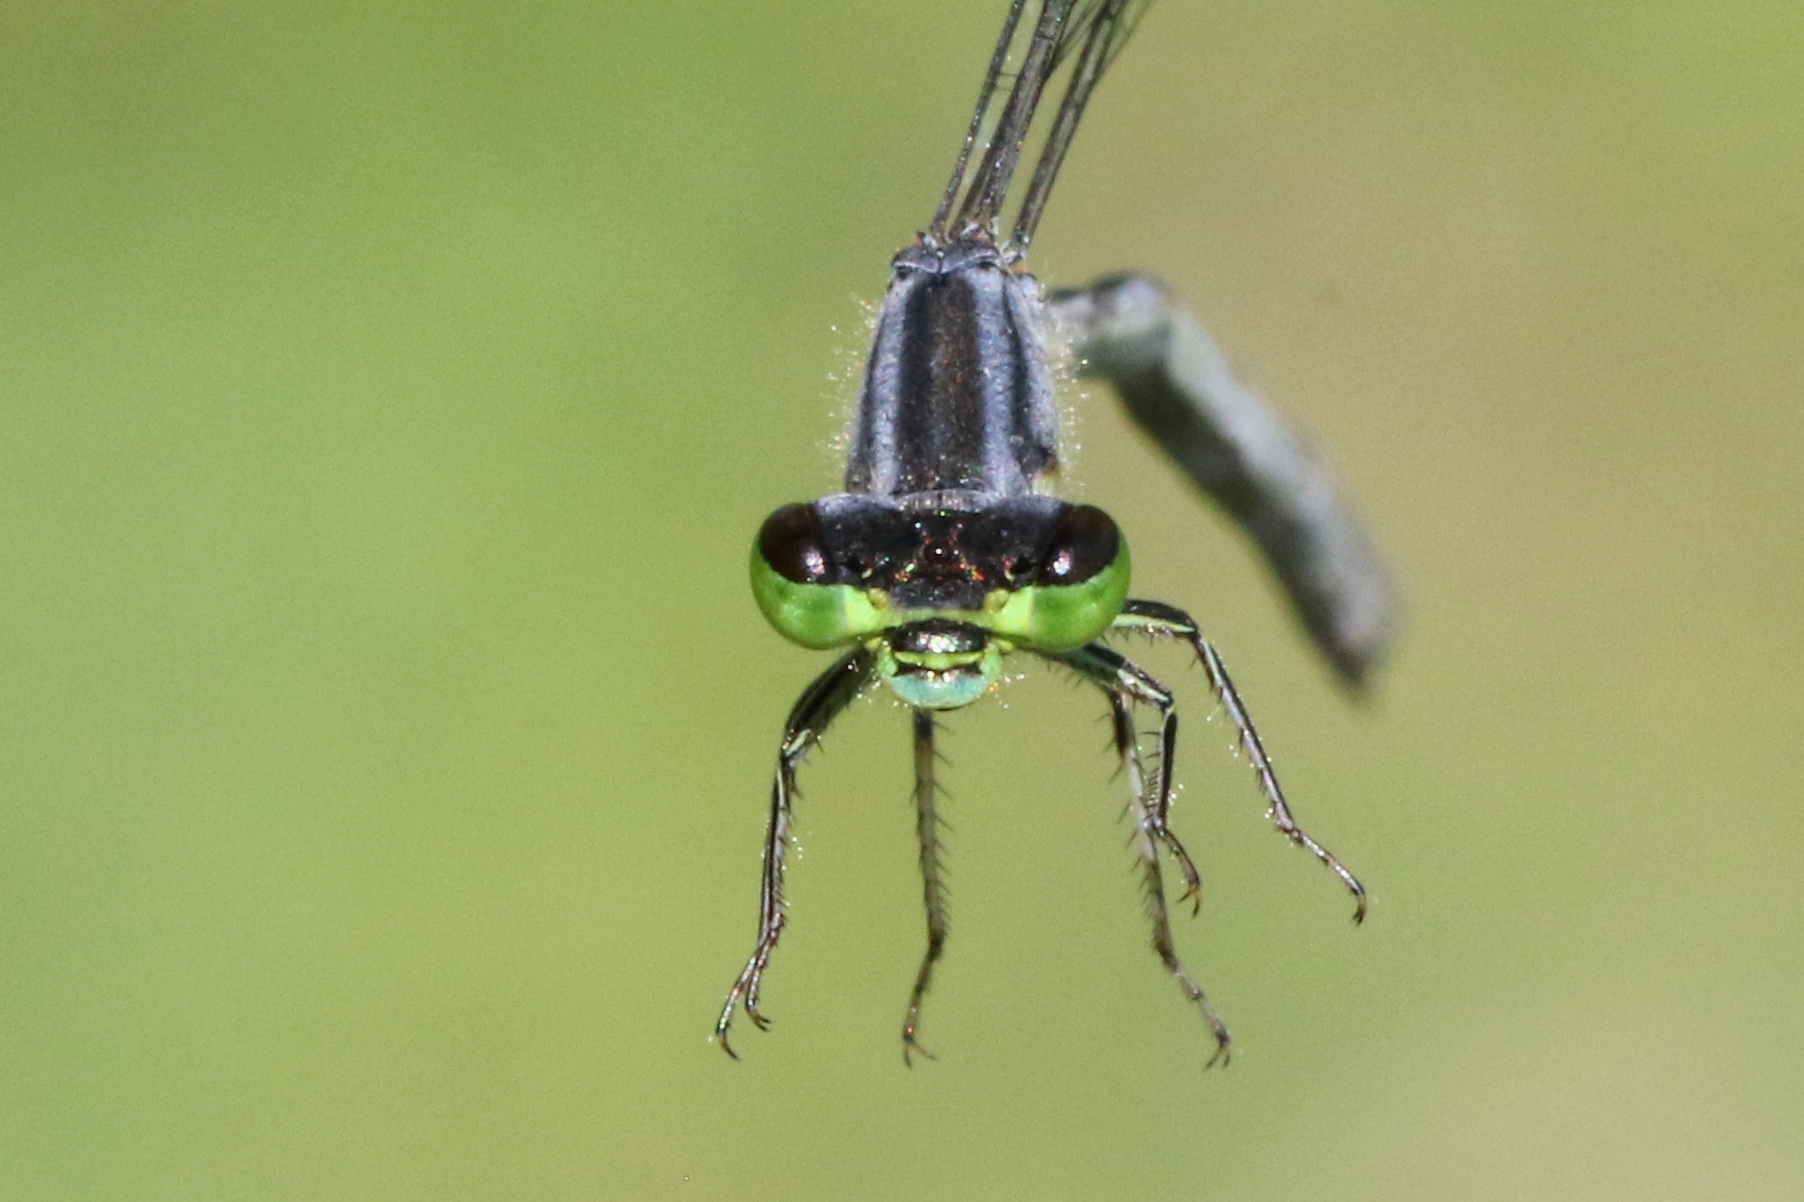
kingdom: Animalia
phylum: Arthropoda
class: Insecta
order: Odonata
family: Coenagrionidae
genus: Ischnura
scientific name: Ischnura verticalis
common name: Eastern forktail
